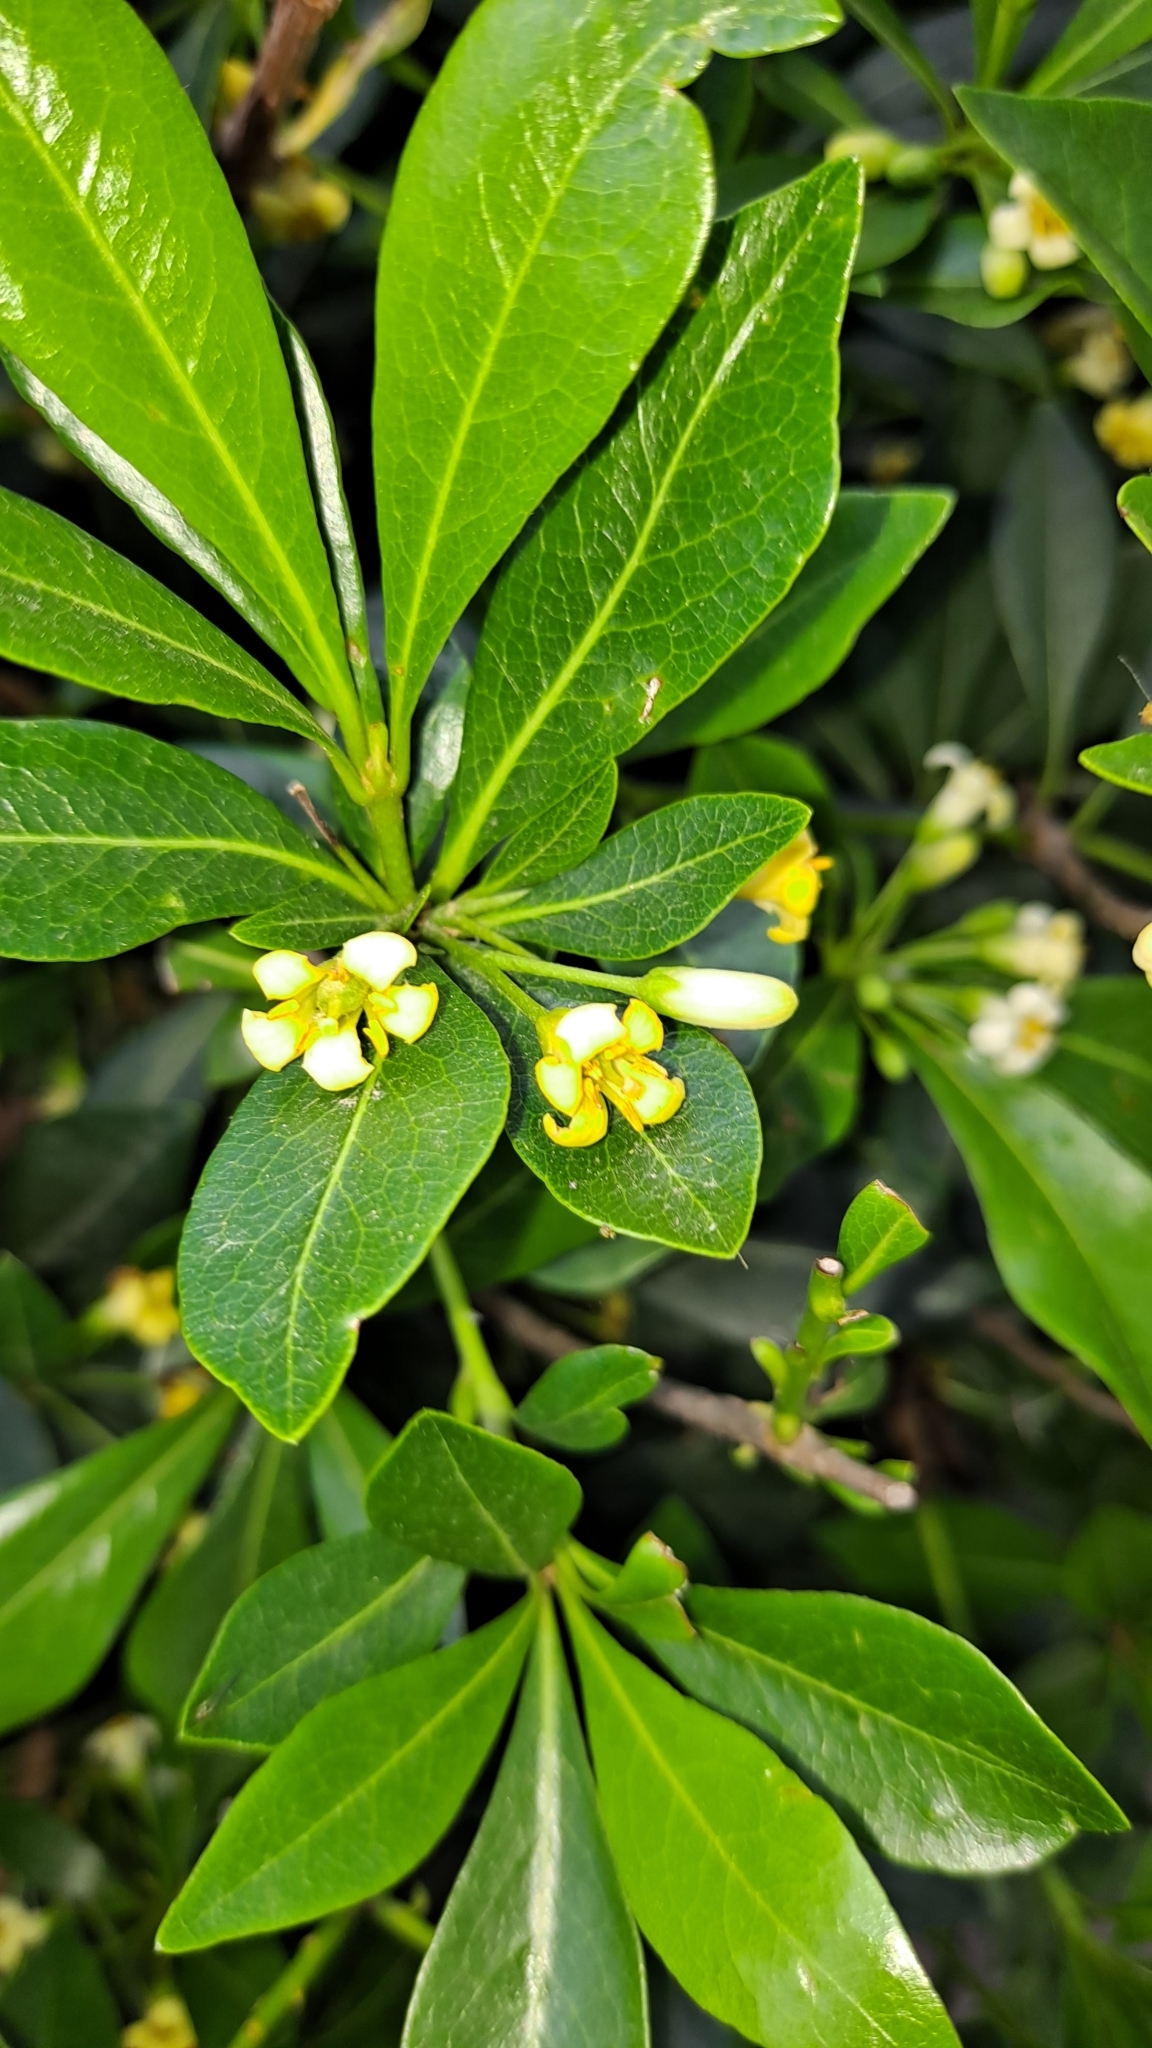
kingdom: Plantae
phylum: Tracheophyta
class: Magnoliopsida
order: Apiales
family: Pittosporaceae
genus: Pittosporum
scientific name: Pittosporum tobira
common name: Japanese cheesewood
